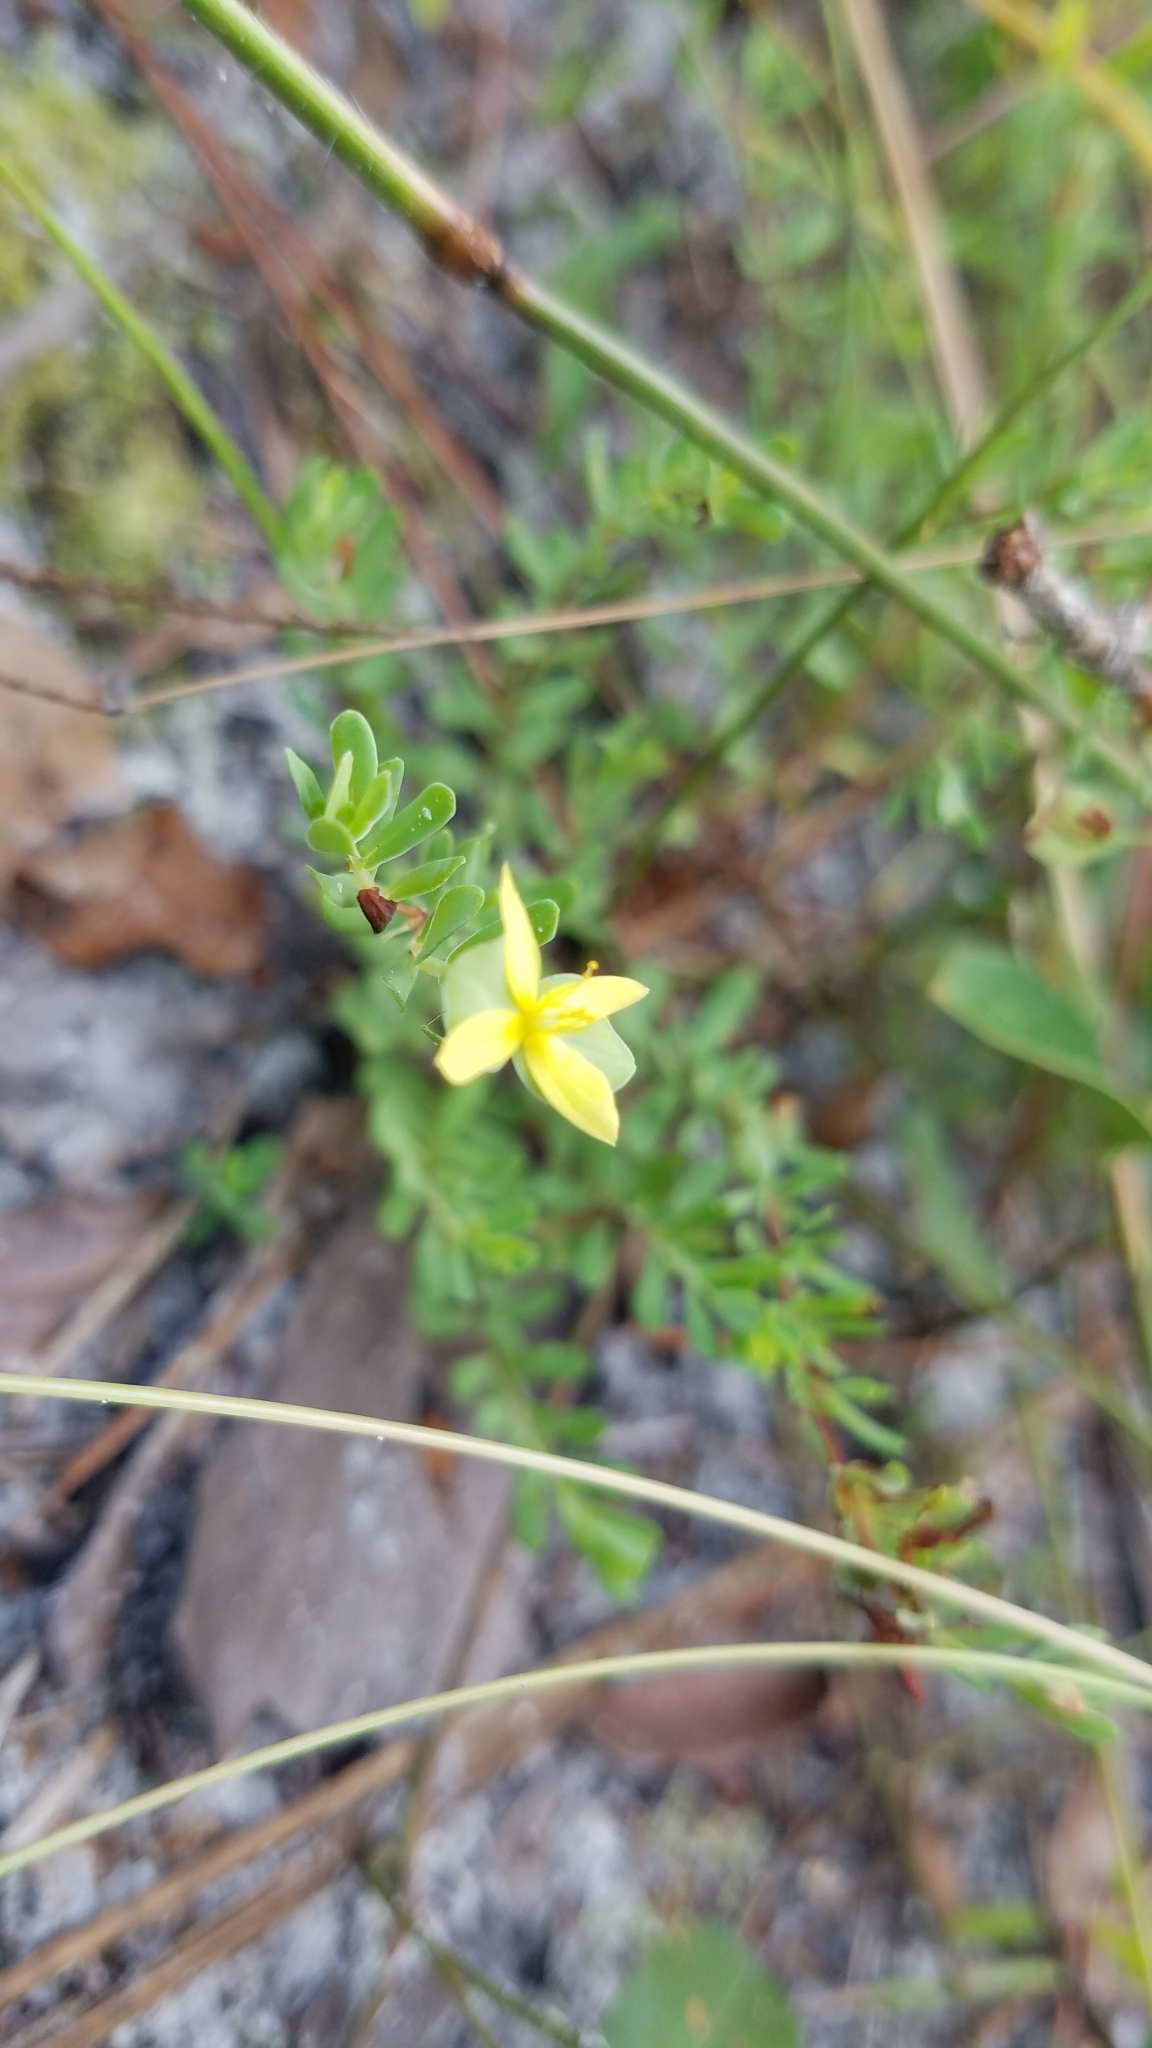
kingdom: Plantae
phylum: Tracheophyta
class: Magnoliopsida
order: Malpighiales
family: Hypericaceae
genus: Hypericum
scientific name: Hypericum hypericoides
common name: St. andrew's cross
